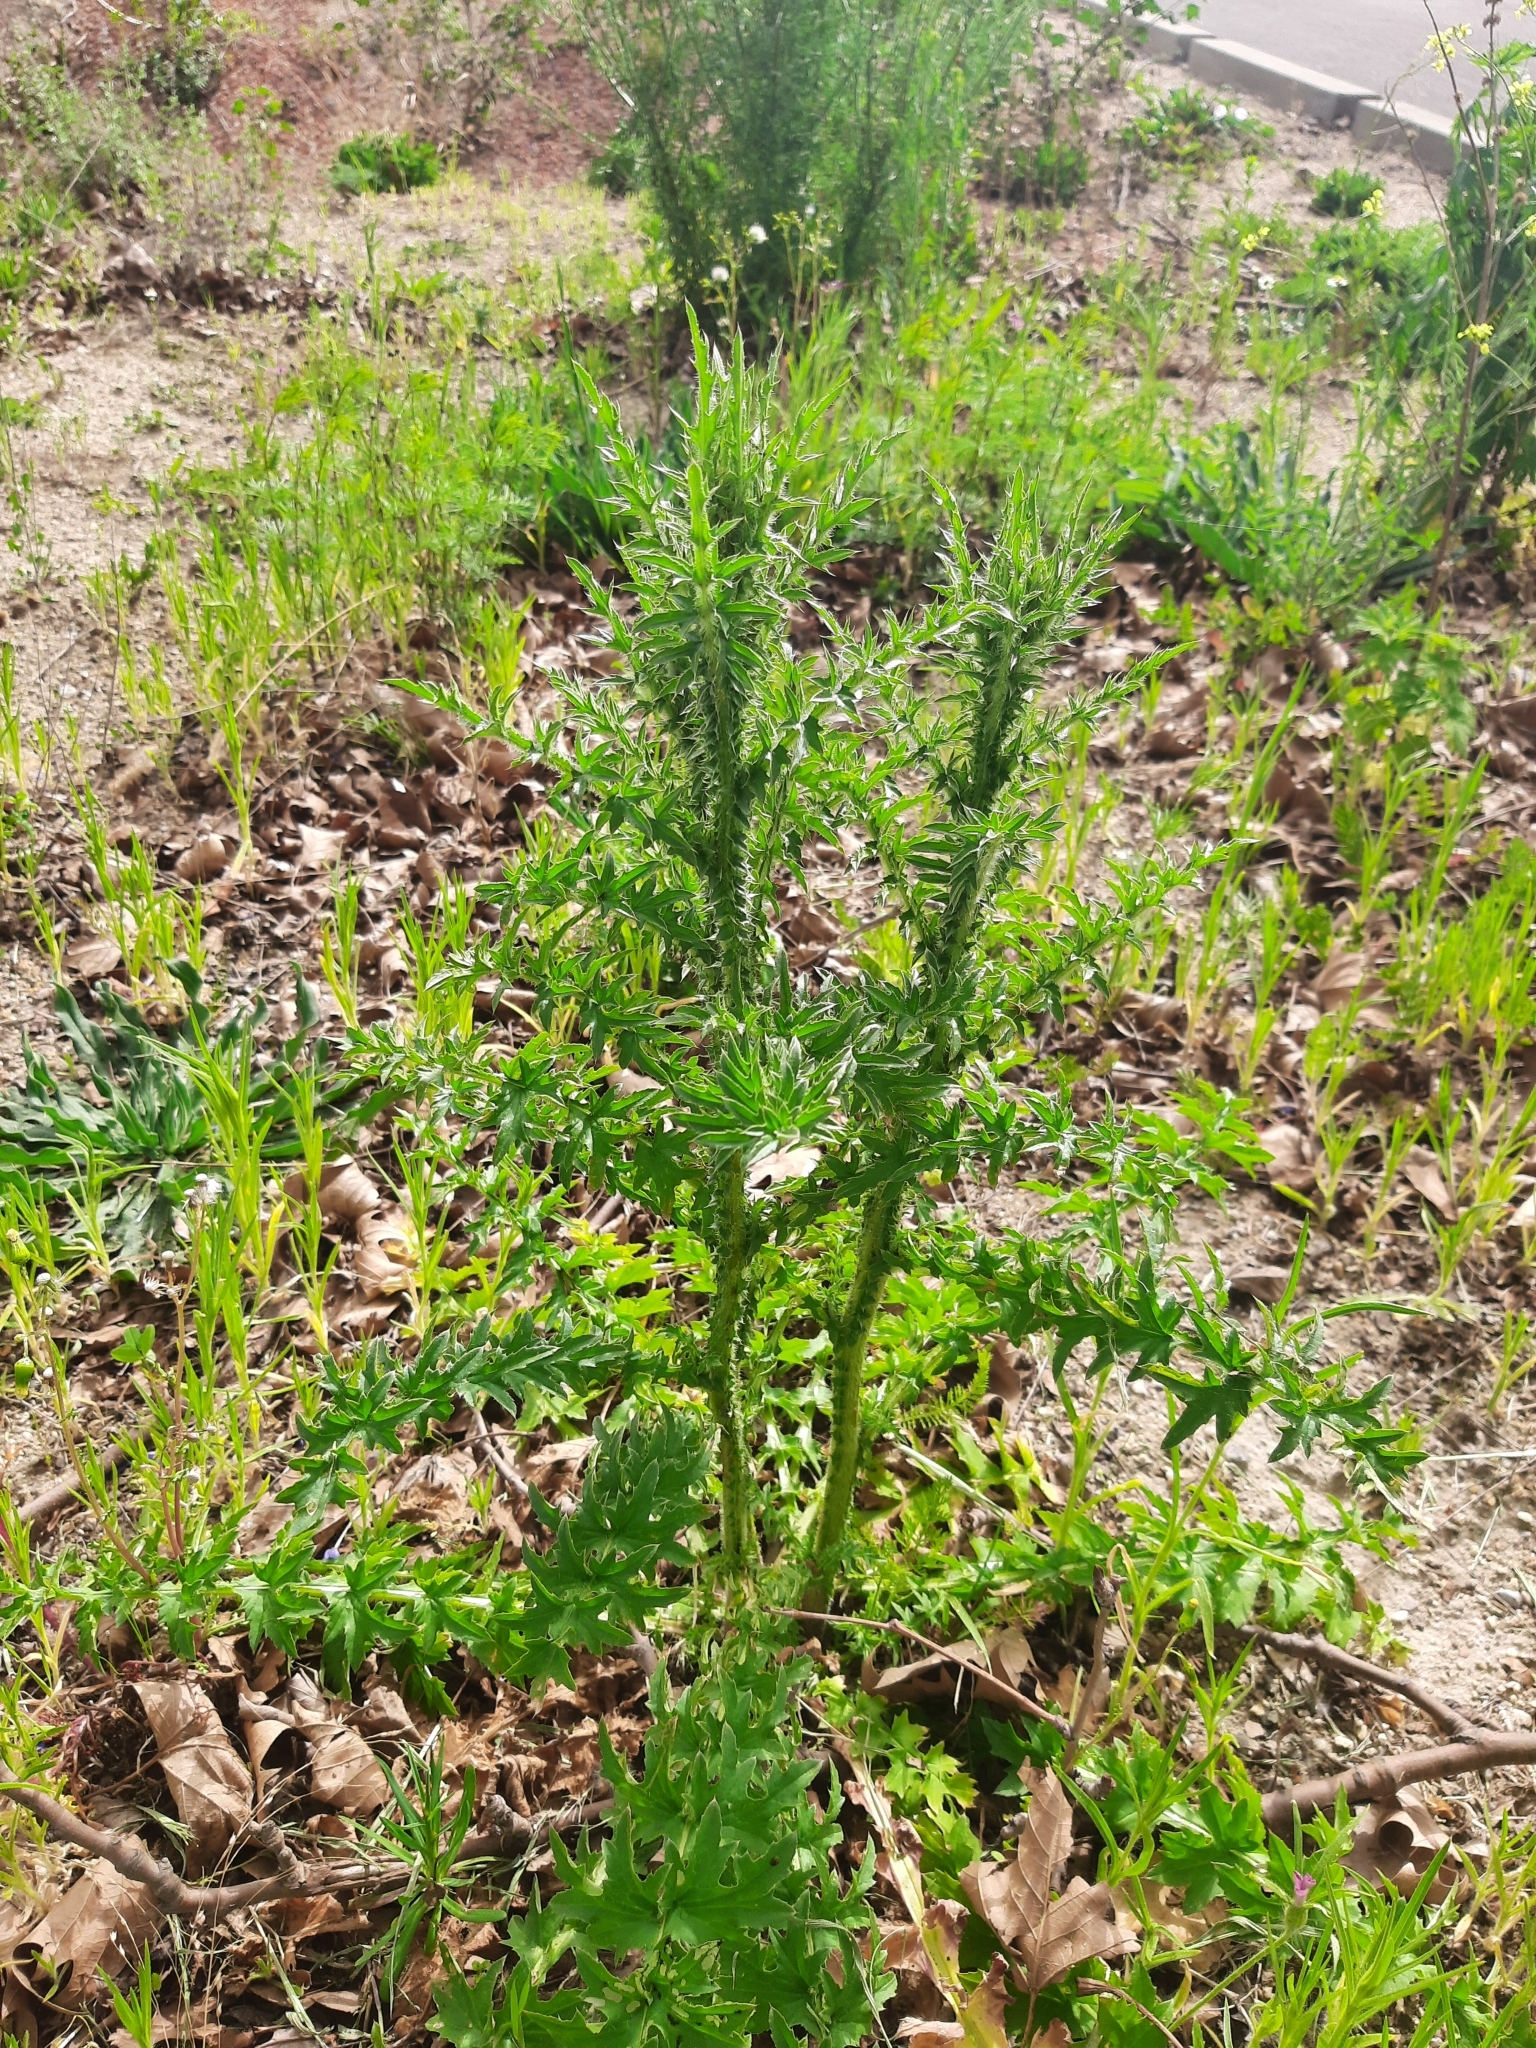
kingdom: Plantae
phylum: Tracheophyta
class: Magnoliopsida
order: Asterales
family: Asteraceae
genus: Carduus
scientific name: Carduus acanthoides
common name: Plumeless thistle
